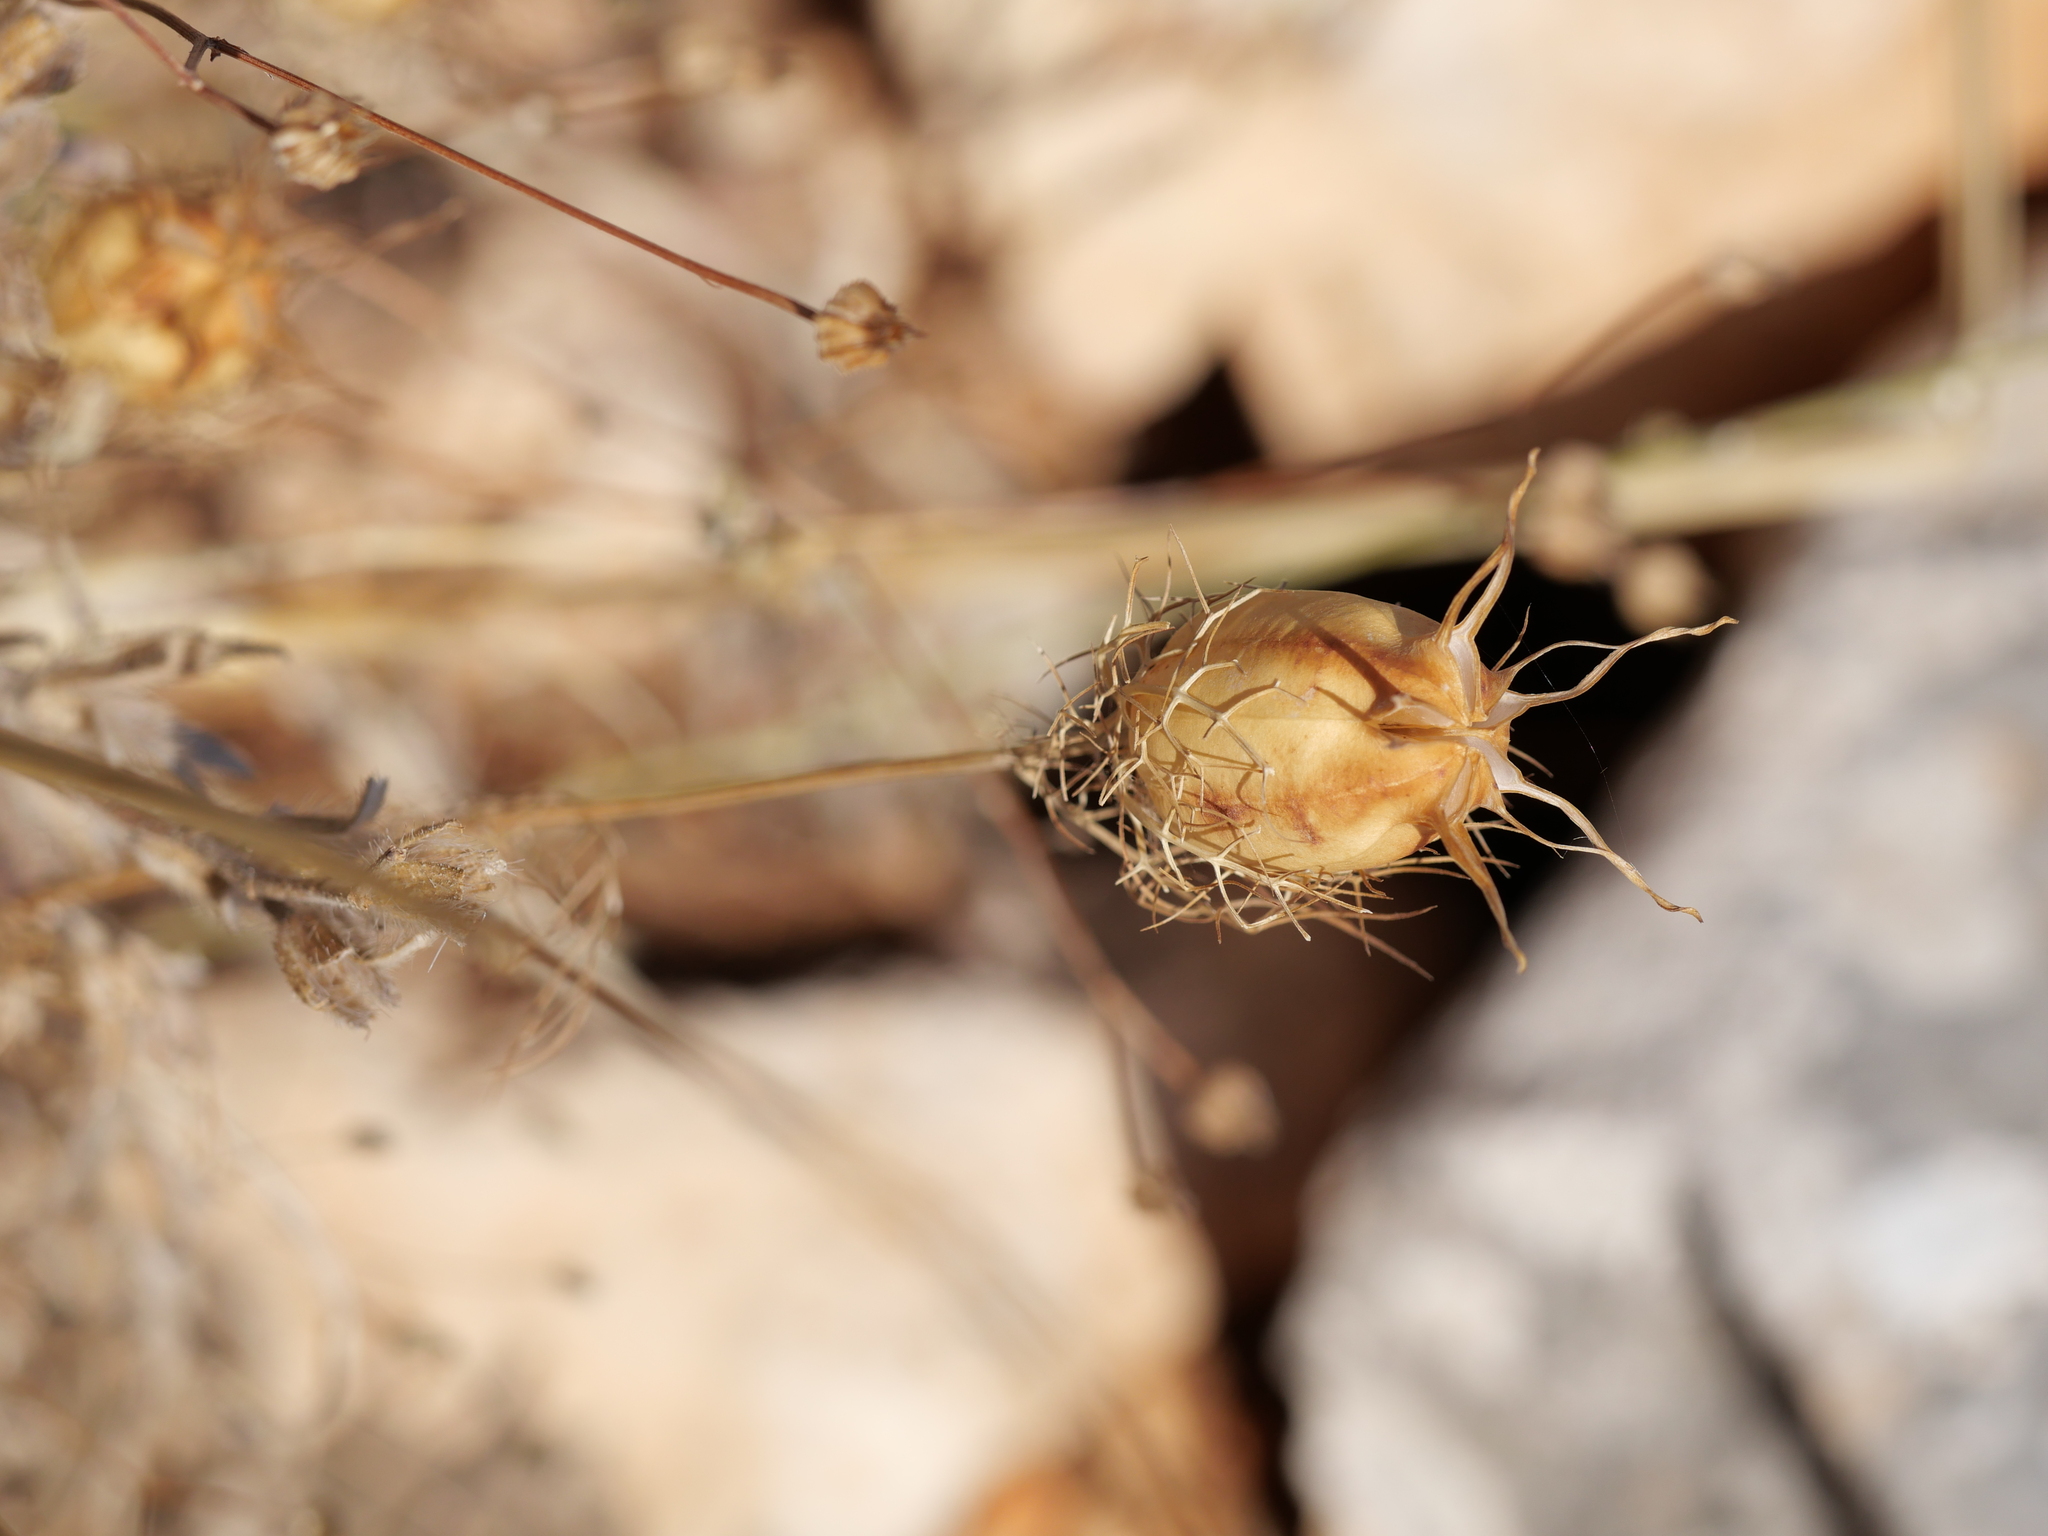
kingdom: Plantae
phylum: Tracheophyta
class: Magnoliopsida
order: Ranunculales
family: Ranunculaceae
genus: Nigella
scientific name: Nigella damascena
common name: Love-in-a-mist
